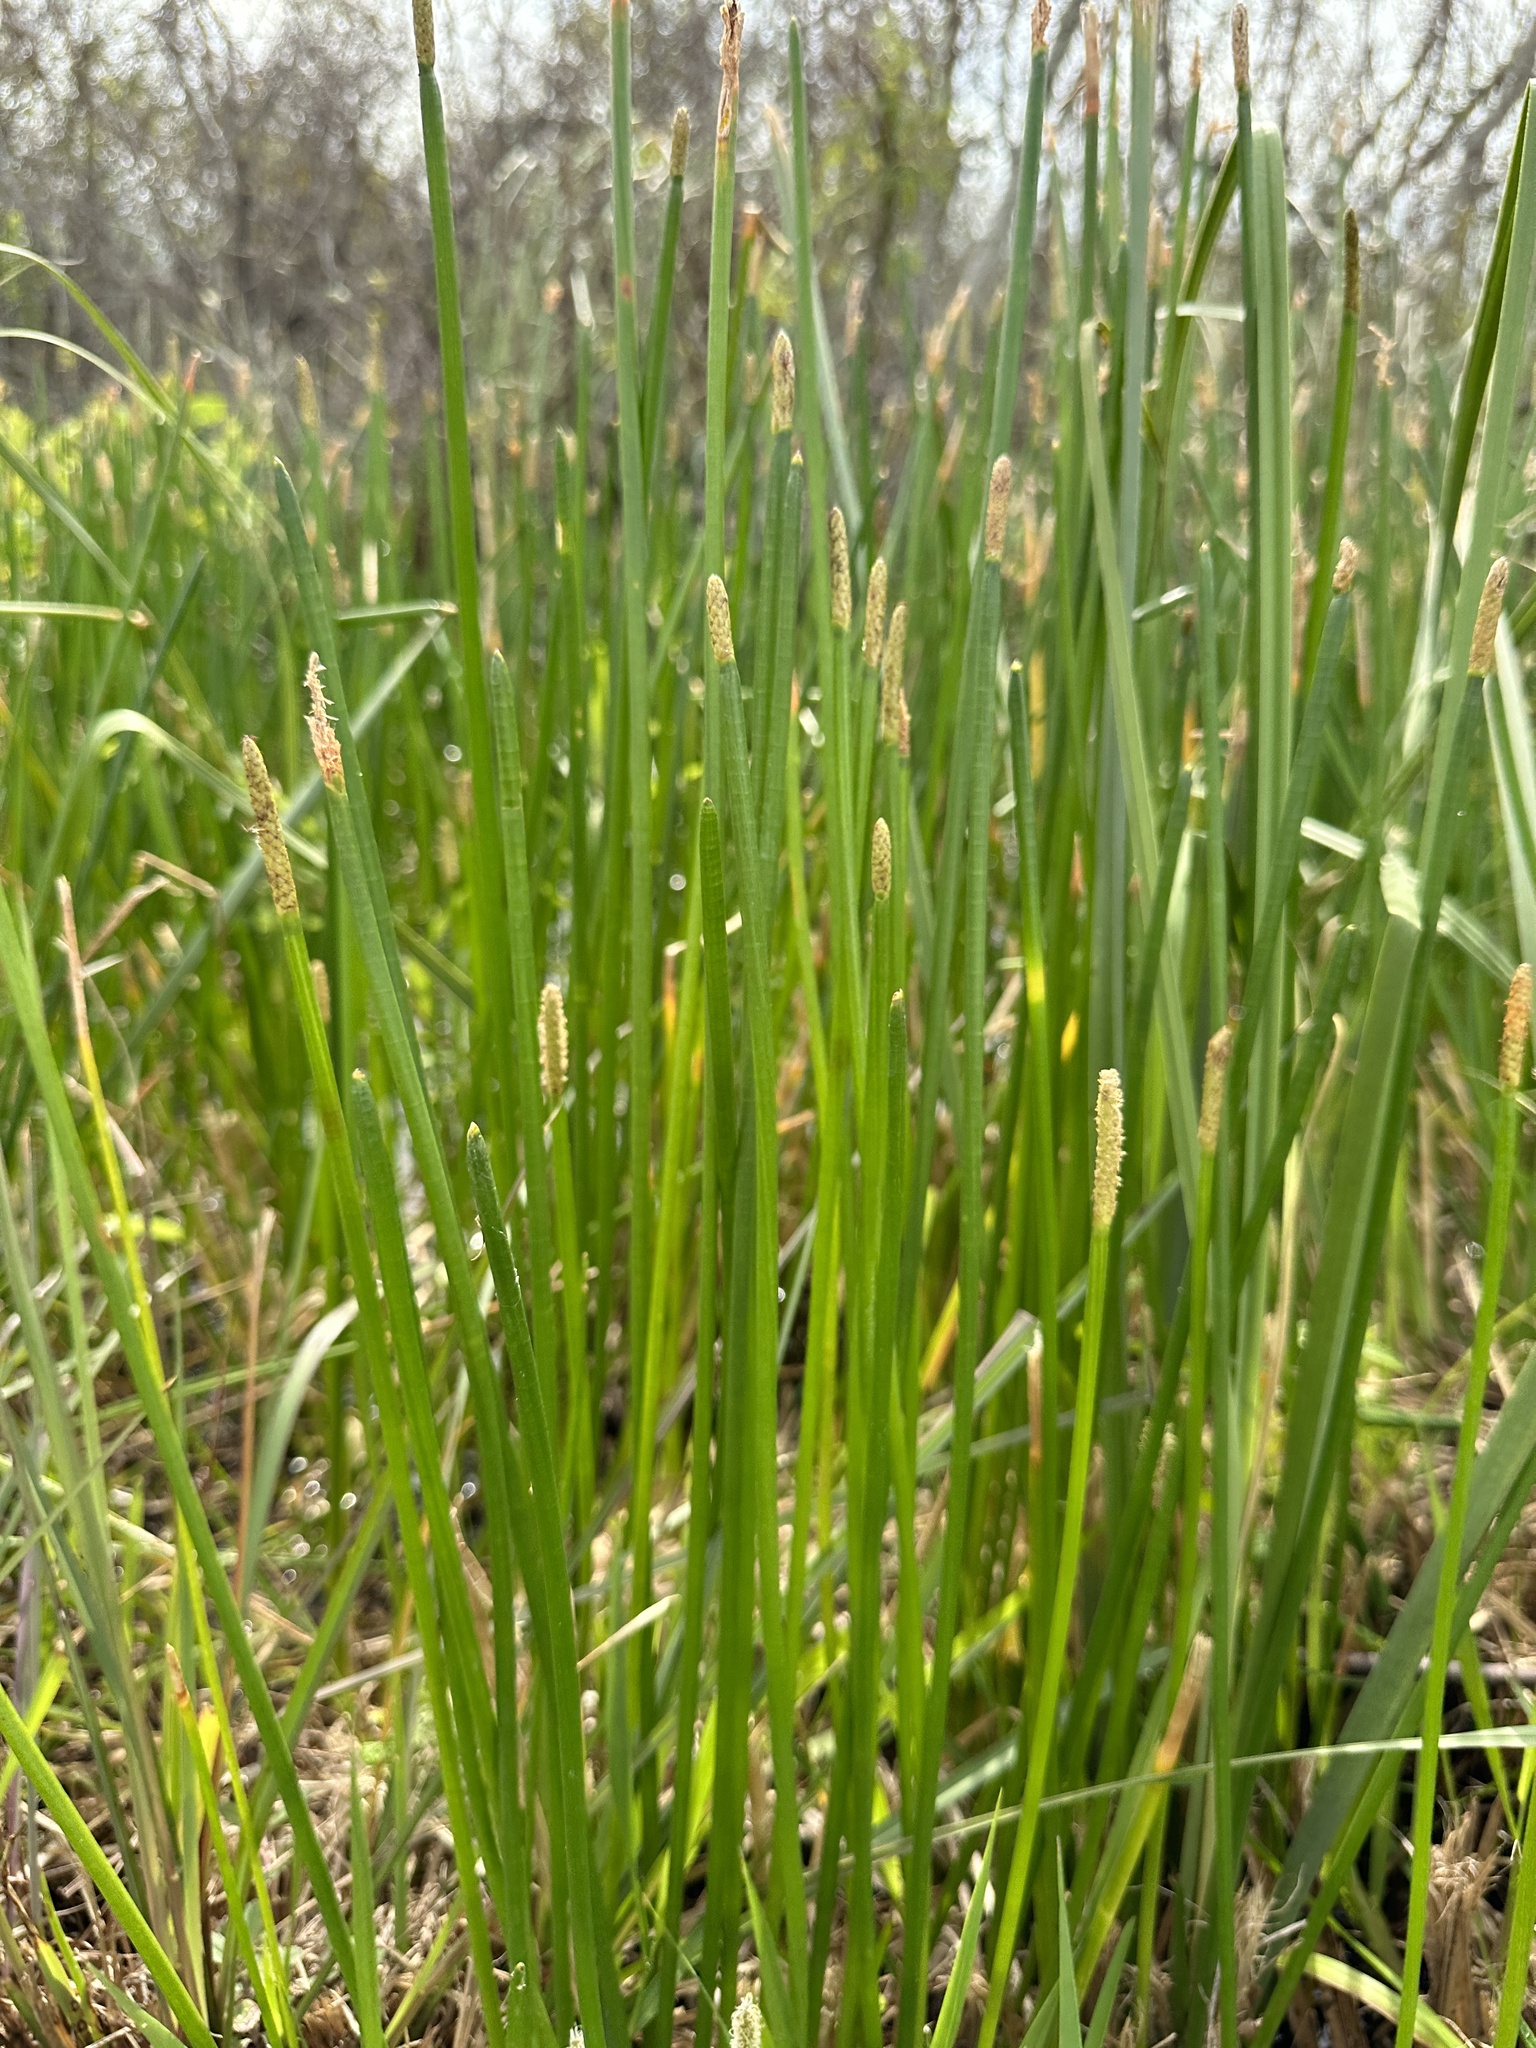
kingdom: Plantae
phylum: Tracheophyta
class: Liliopsida
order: Poales
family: Cyperaceae
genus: Eleocharis
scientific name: Eleocharis interstincta
